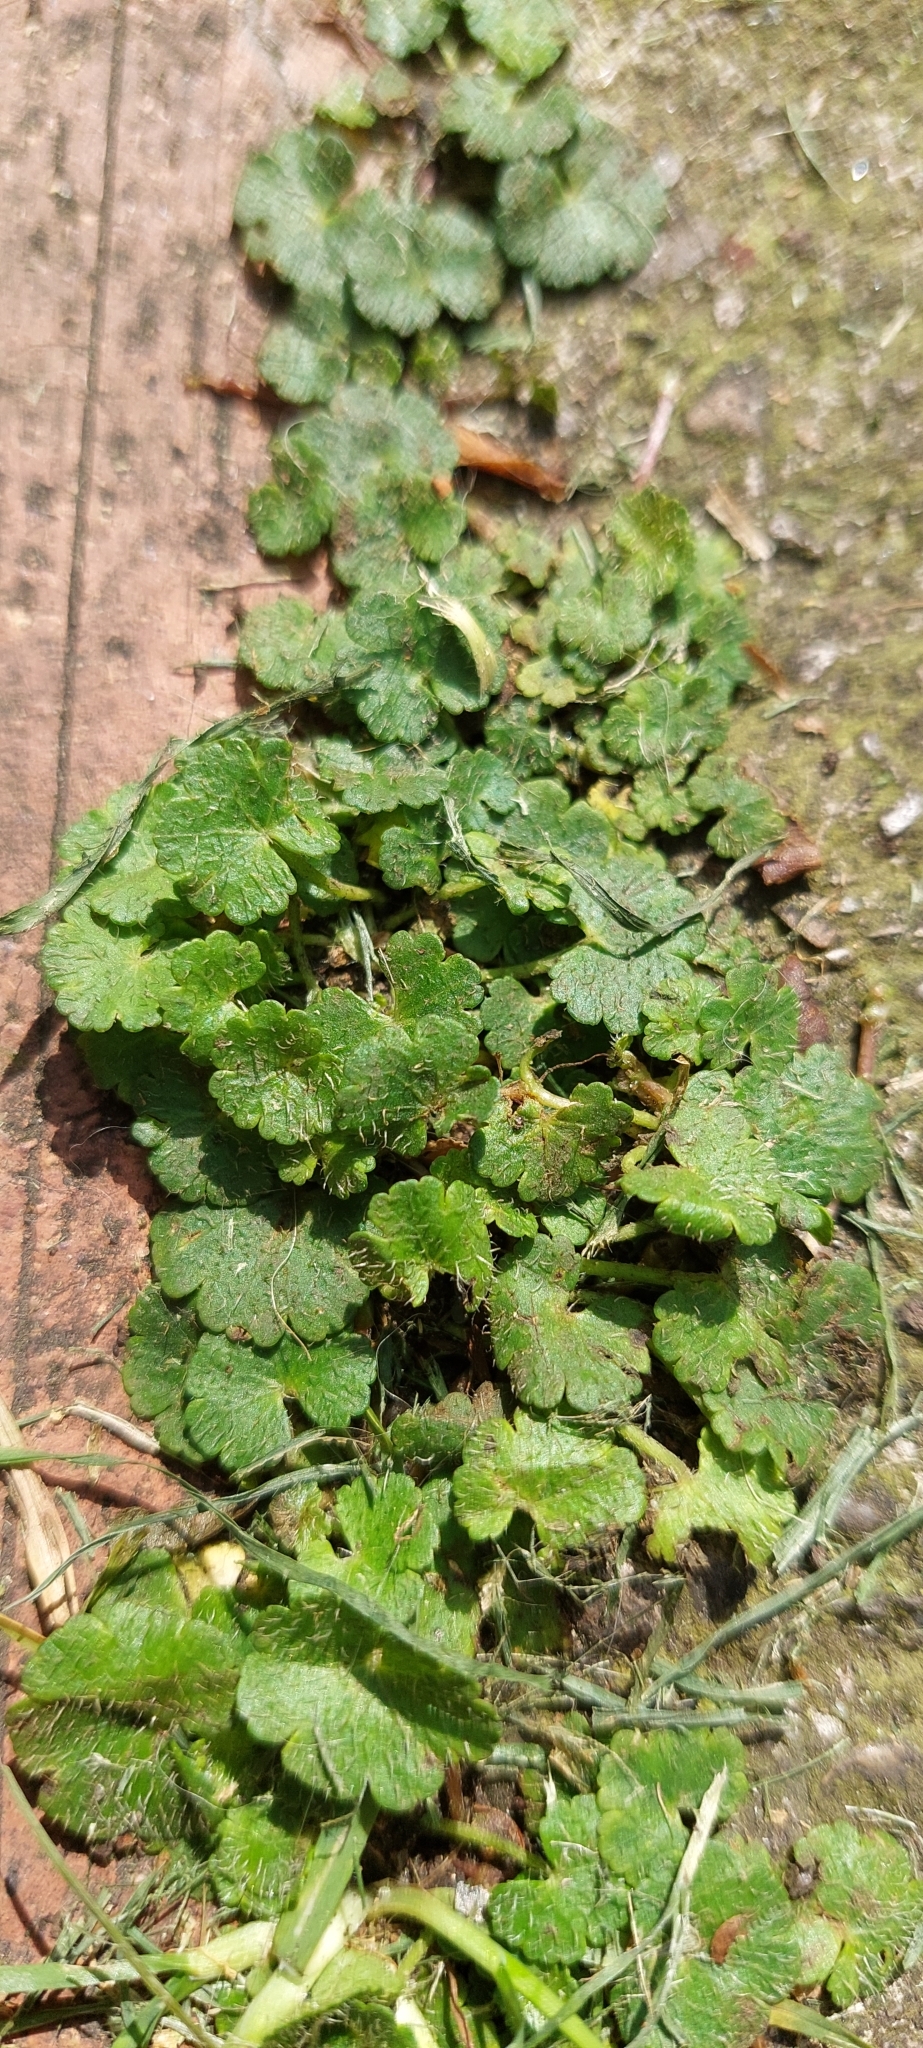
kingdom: Plantae
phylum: Tracheophyta
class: Magnoliopsida
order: Apiales
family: Araliaceae
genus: Hydrocotyle
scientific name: Hydrocotyle bonplandii
